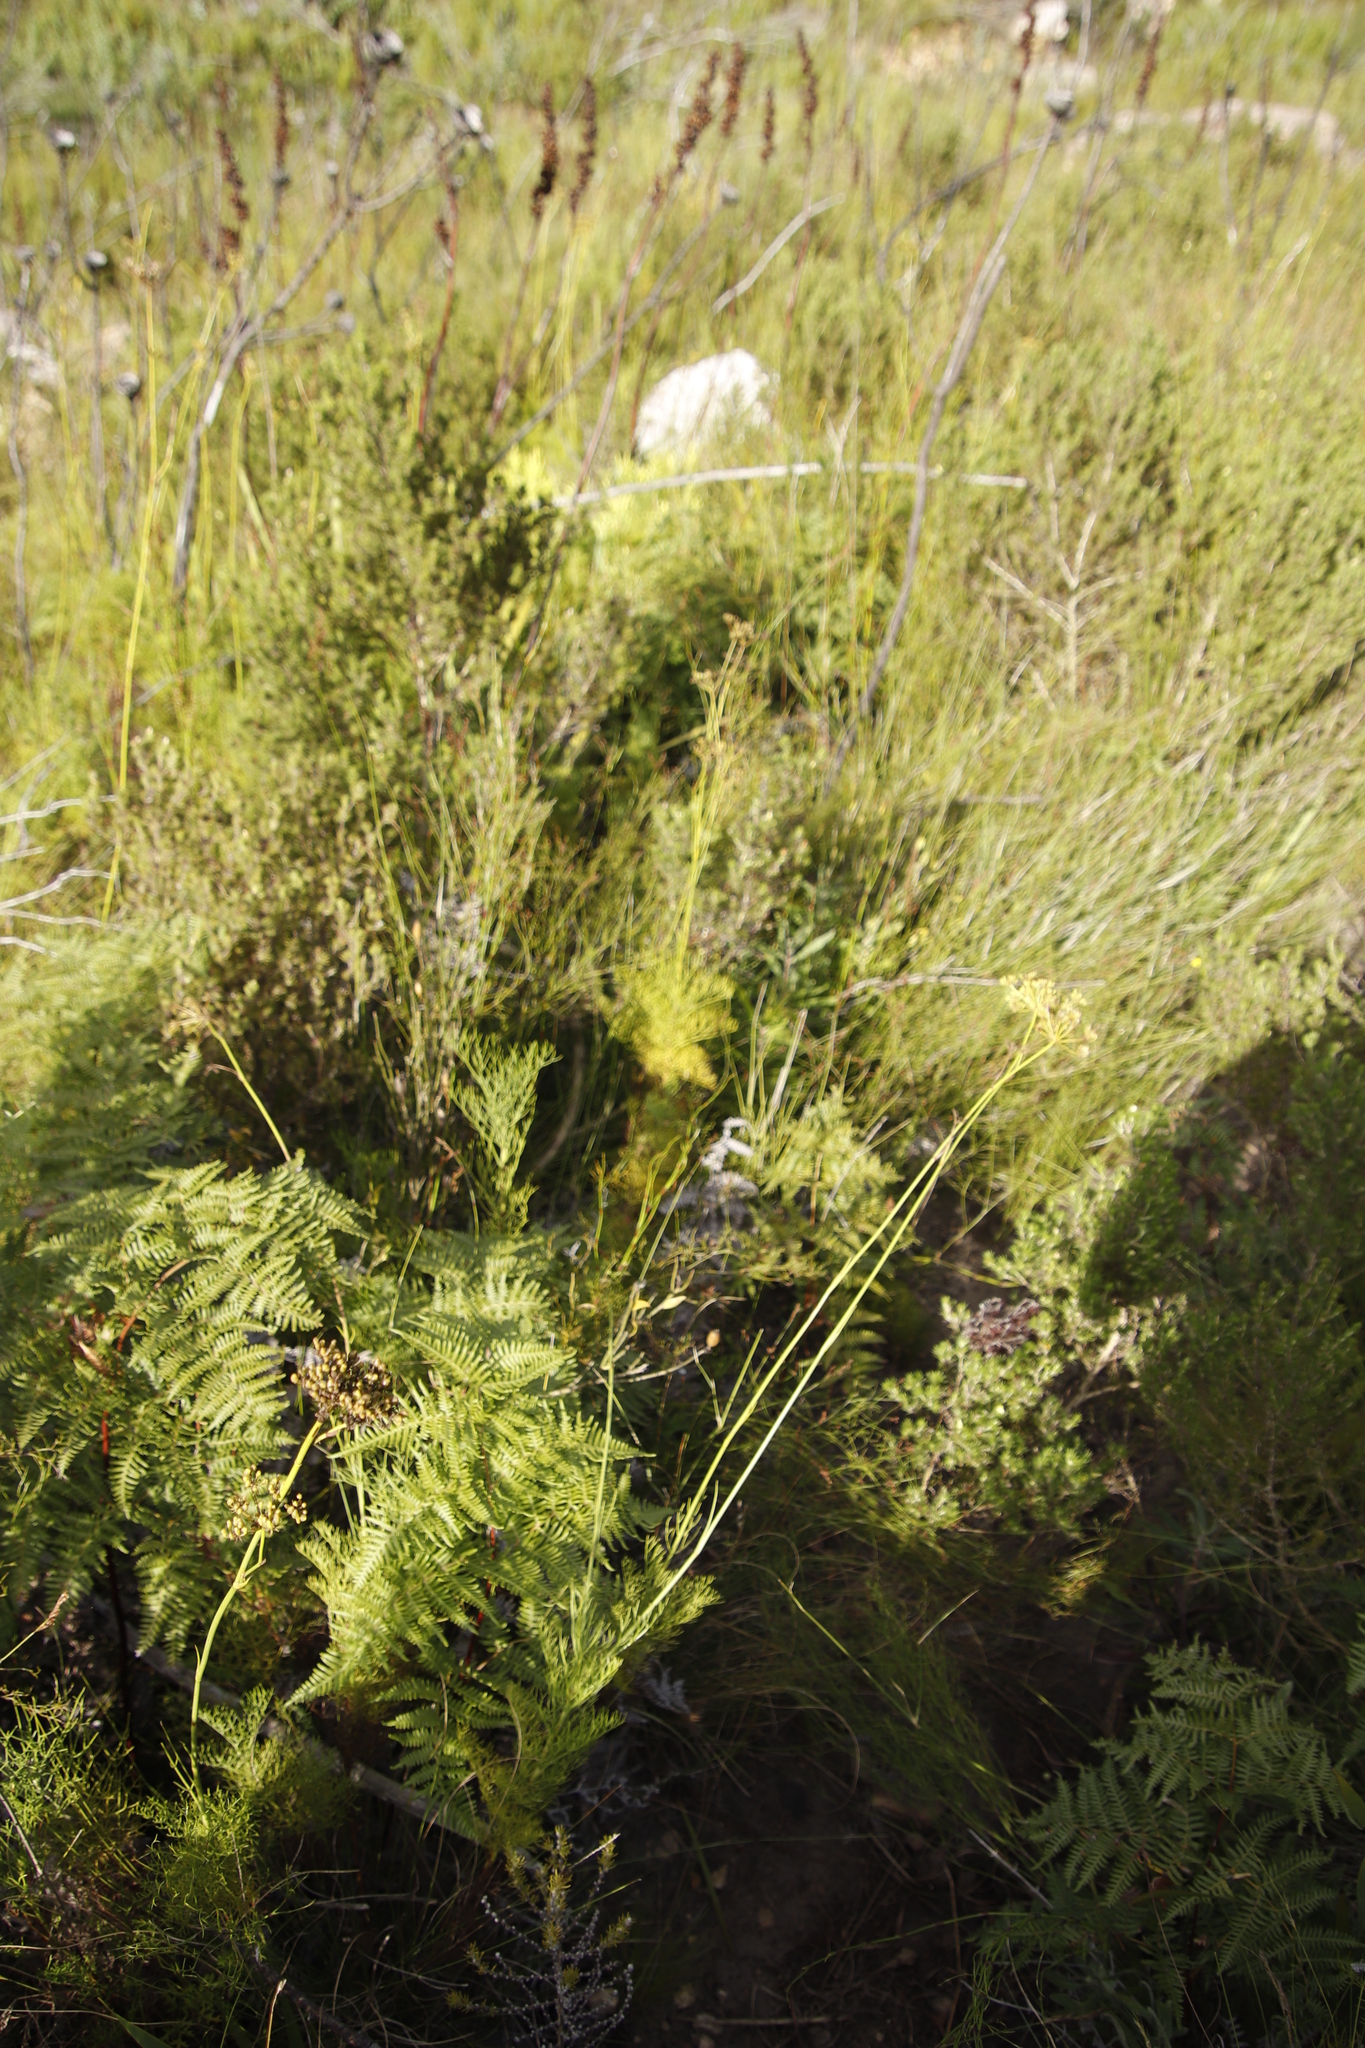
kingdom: Plantae
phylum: Tracheophyta
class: Magnoliopsida
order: Apiales
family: Apiaceae
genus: Notobubon
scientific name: Notobubon ferulaceum
